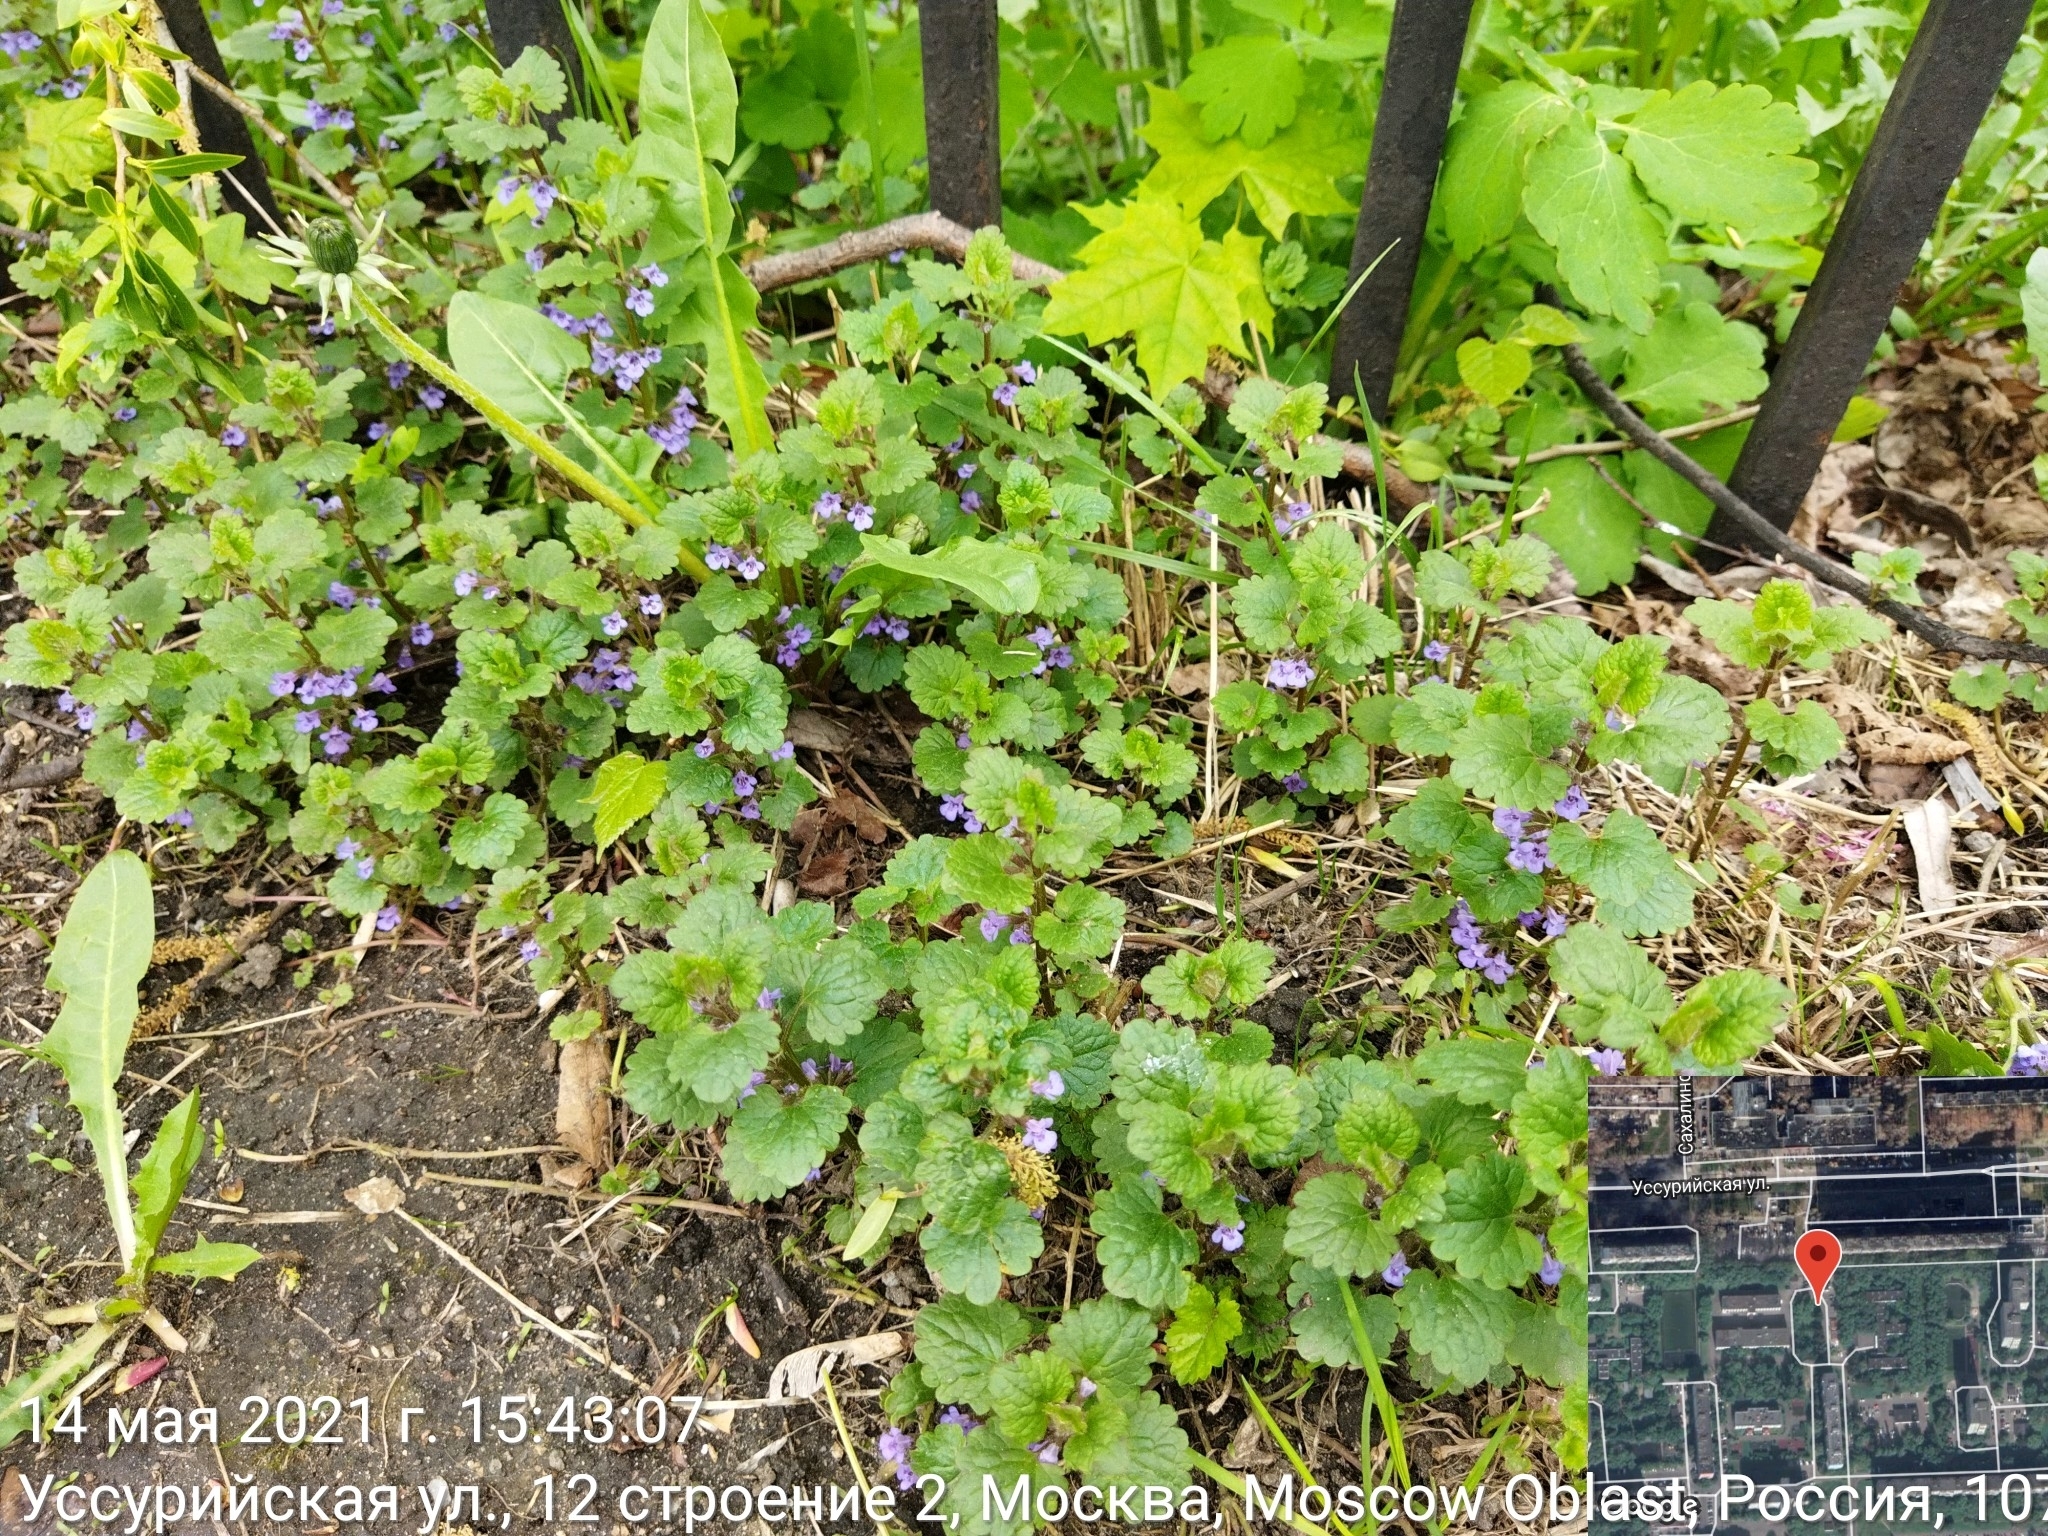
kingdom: Plantae
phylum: Tracheophyta
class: Magnoliopsida
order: Lamiales
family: Lamiaceae
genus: Glechoma
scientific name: Glechoma hederacea
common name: Ground ivy
